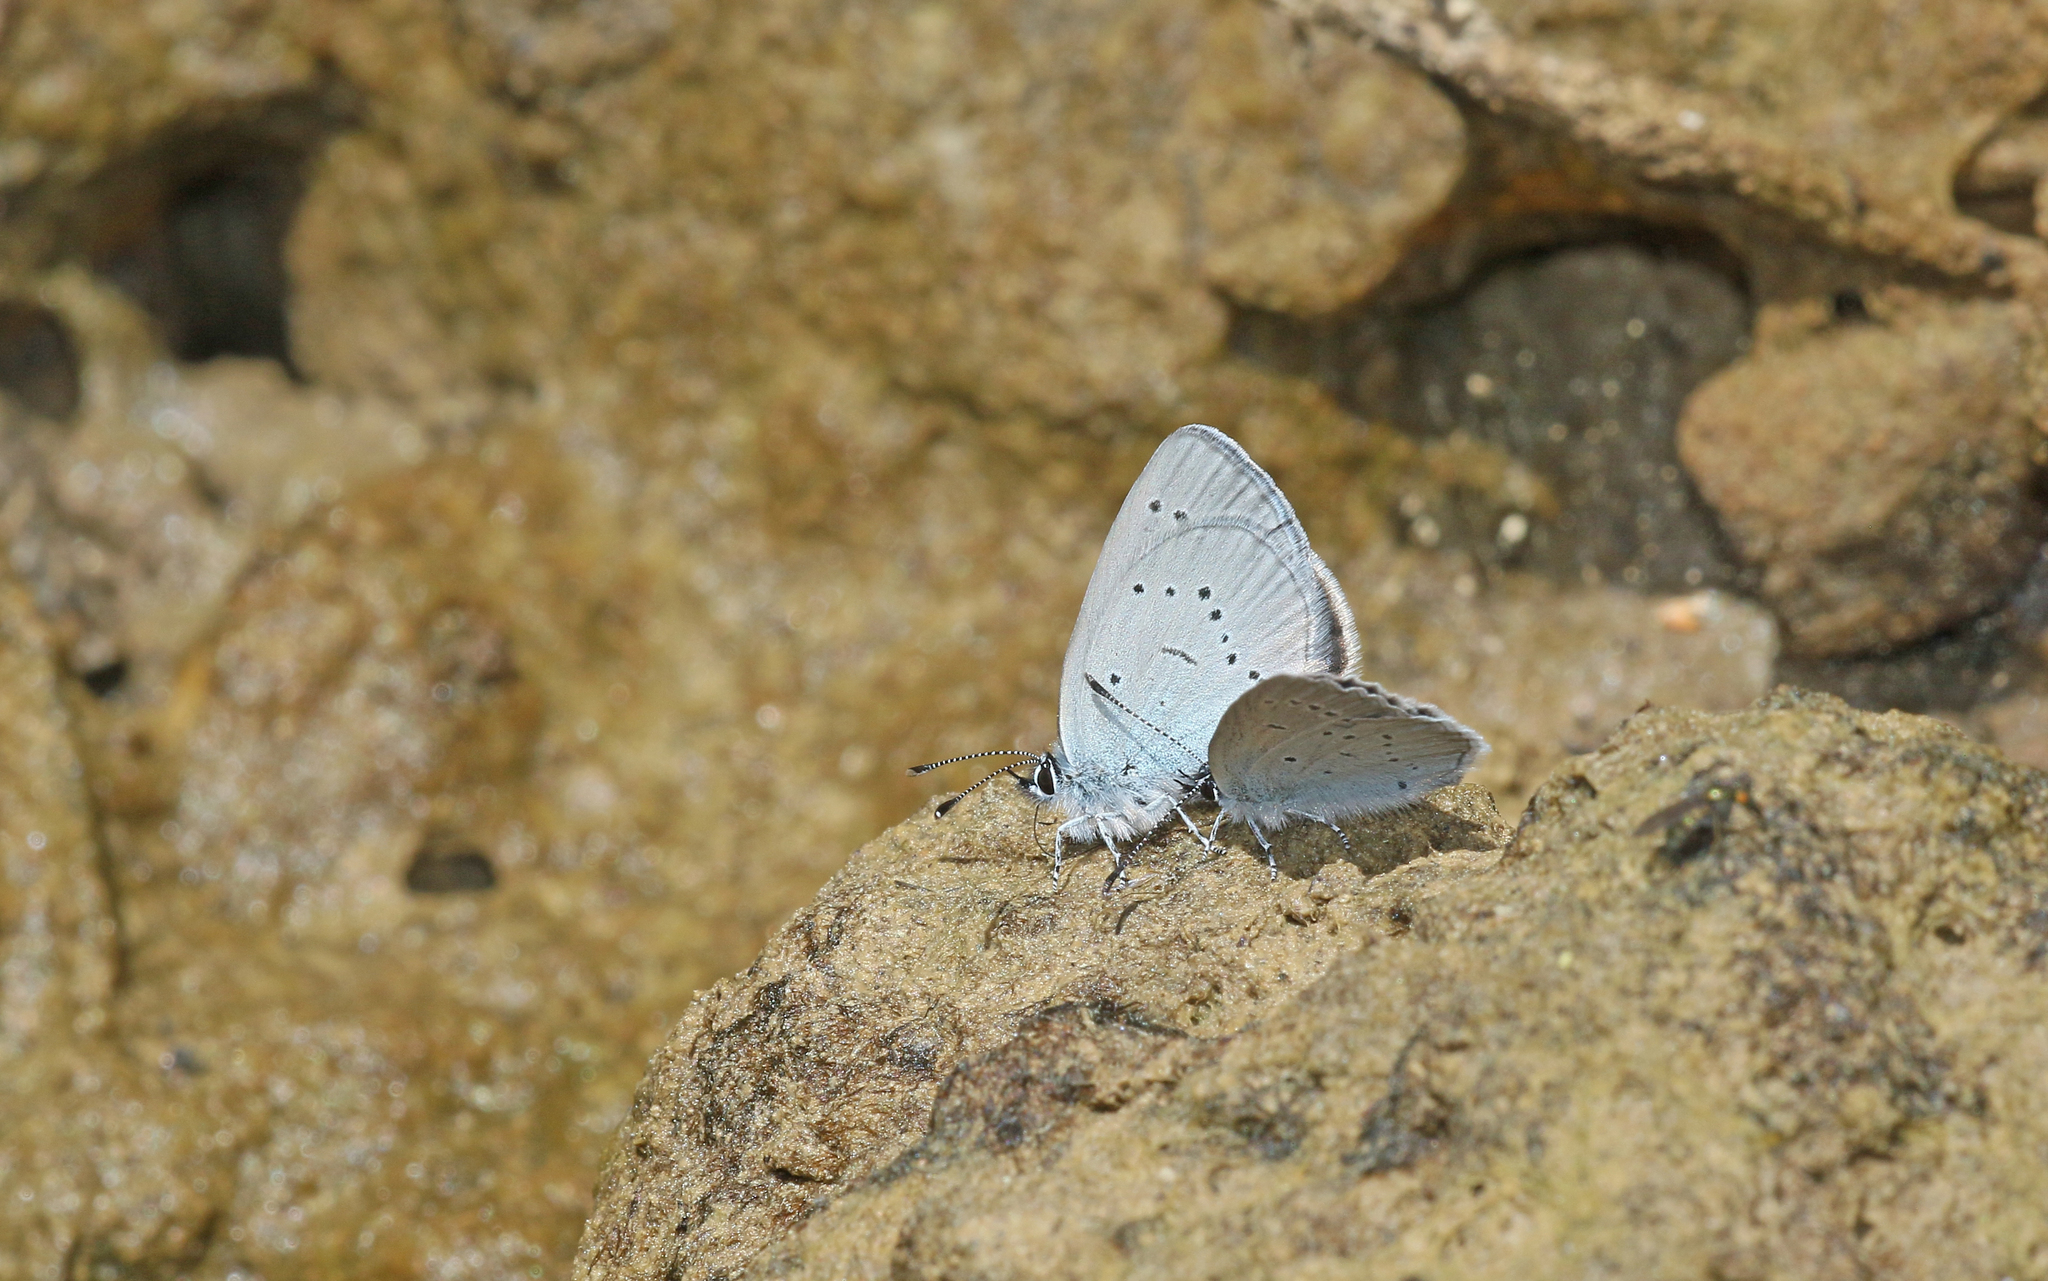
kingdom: Animalia
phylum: Arthropoda
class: Insecta
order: Lepidoptera
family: Lycaenidae
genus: Cupido
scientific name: Cupido lorquinii
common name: Lorquin’s blue
